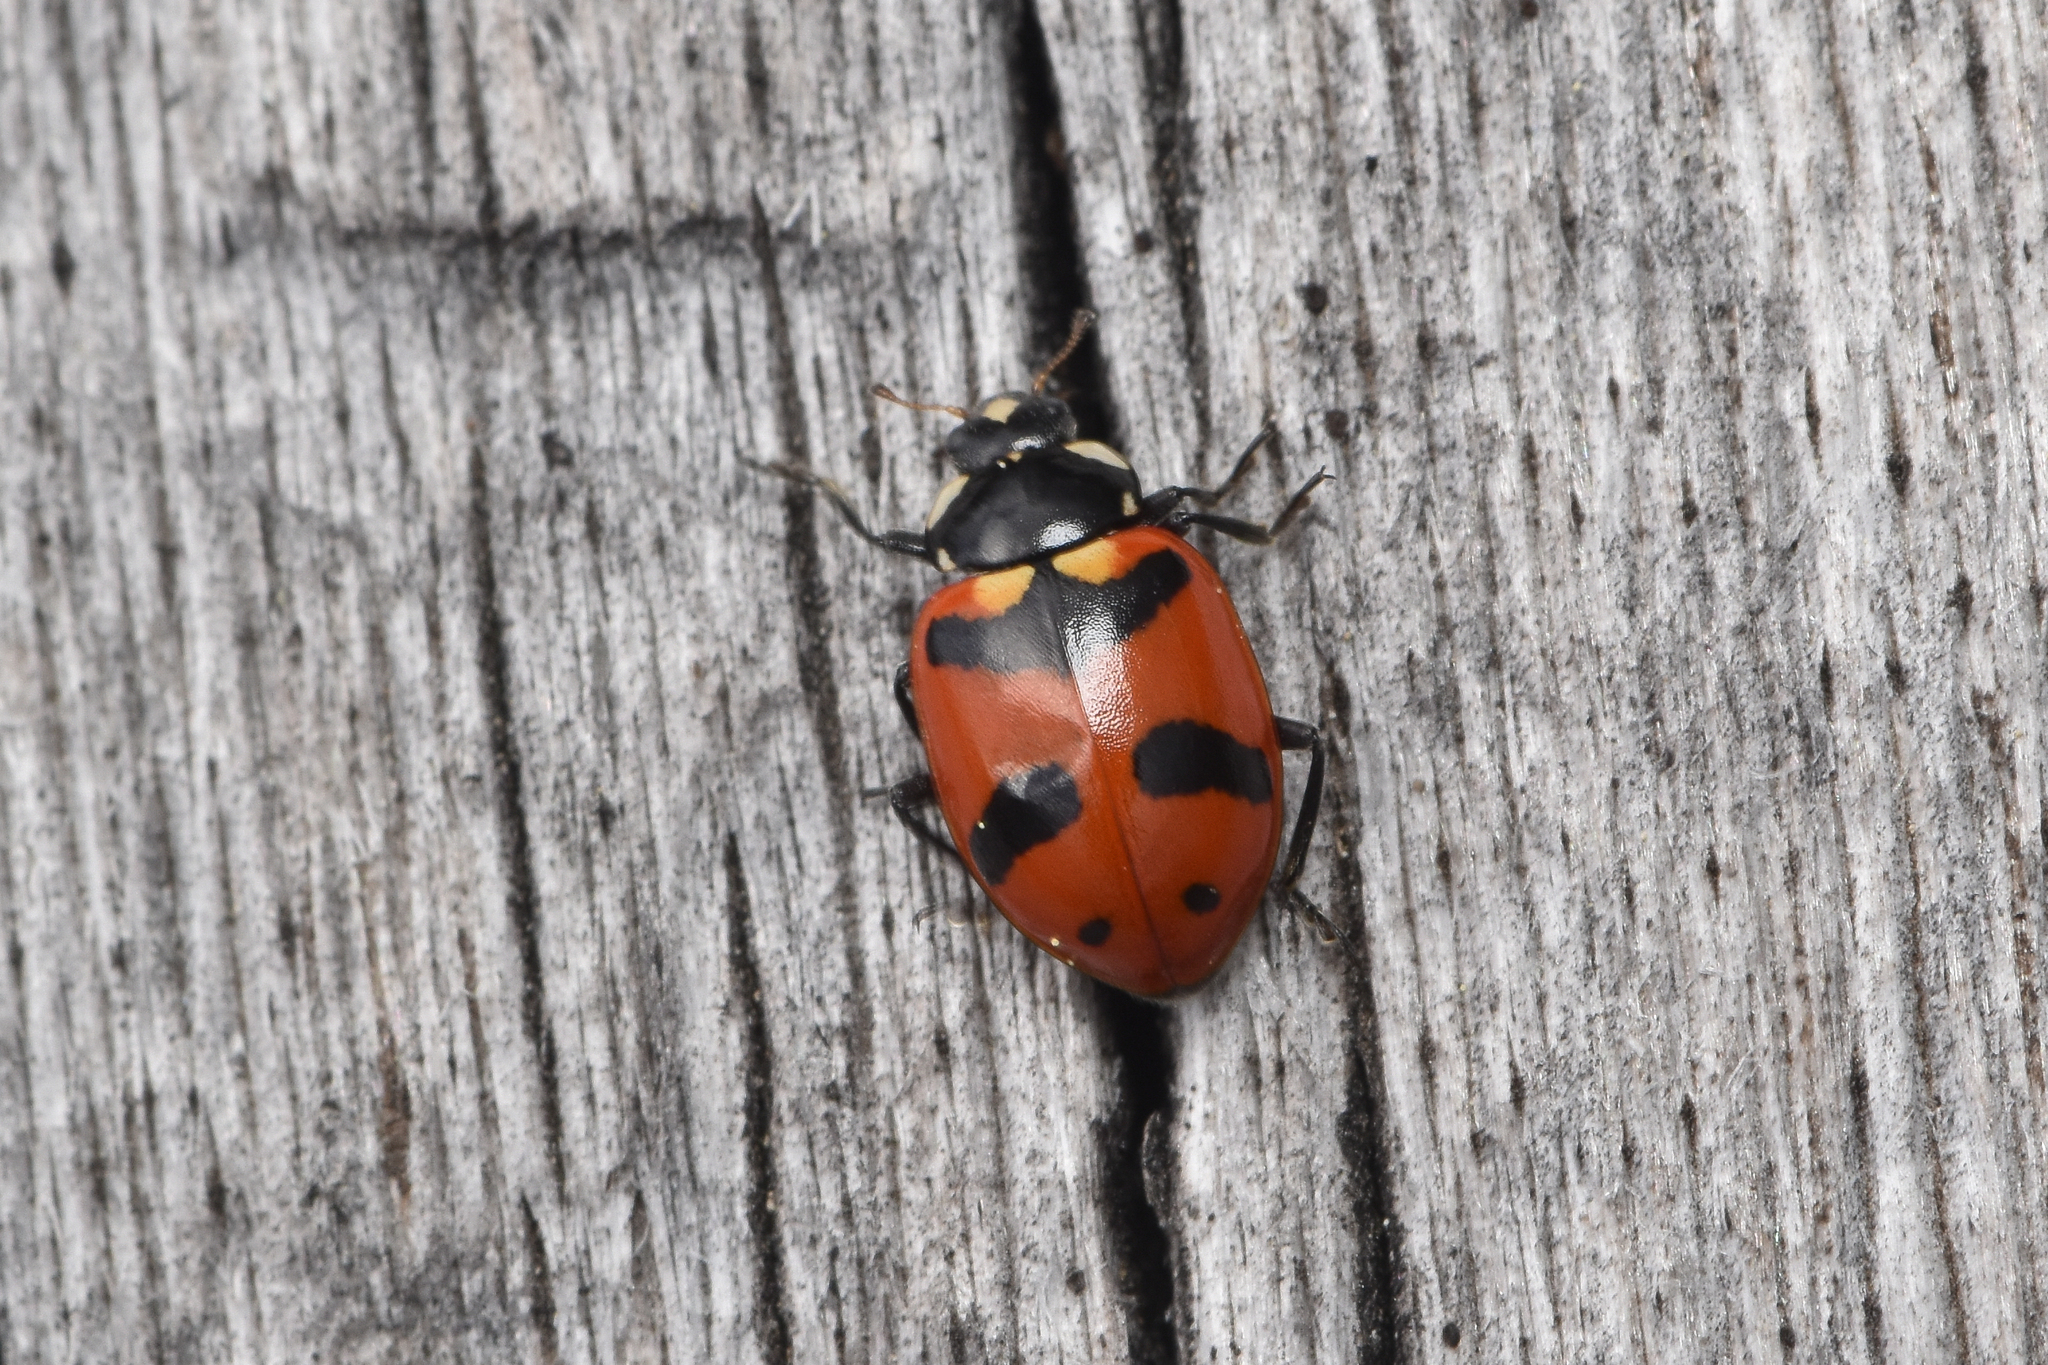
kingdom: Animalia
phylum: Arthropoda
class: Insecta
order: Coleoptera
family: Coccinellidae
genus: Hippodamia
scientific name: Hippodamia caseyi
